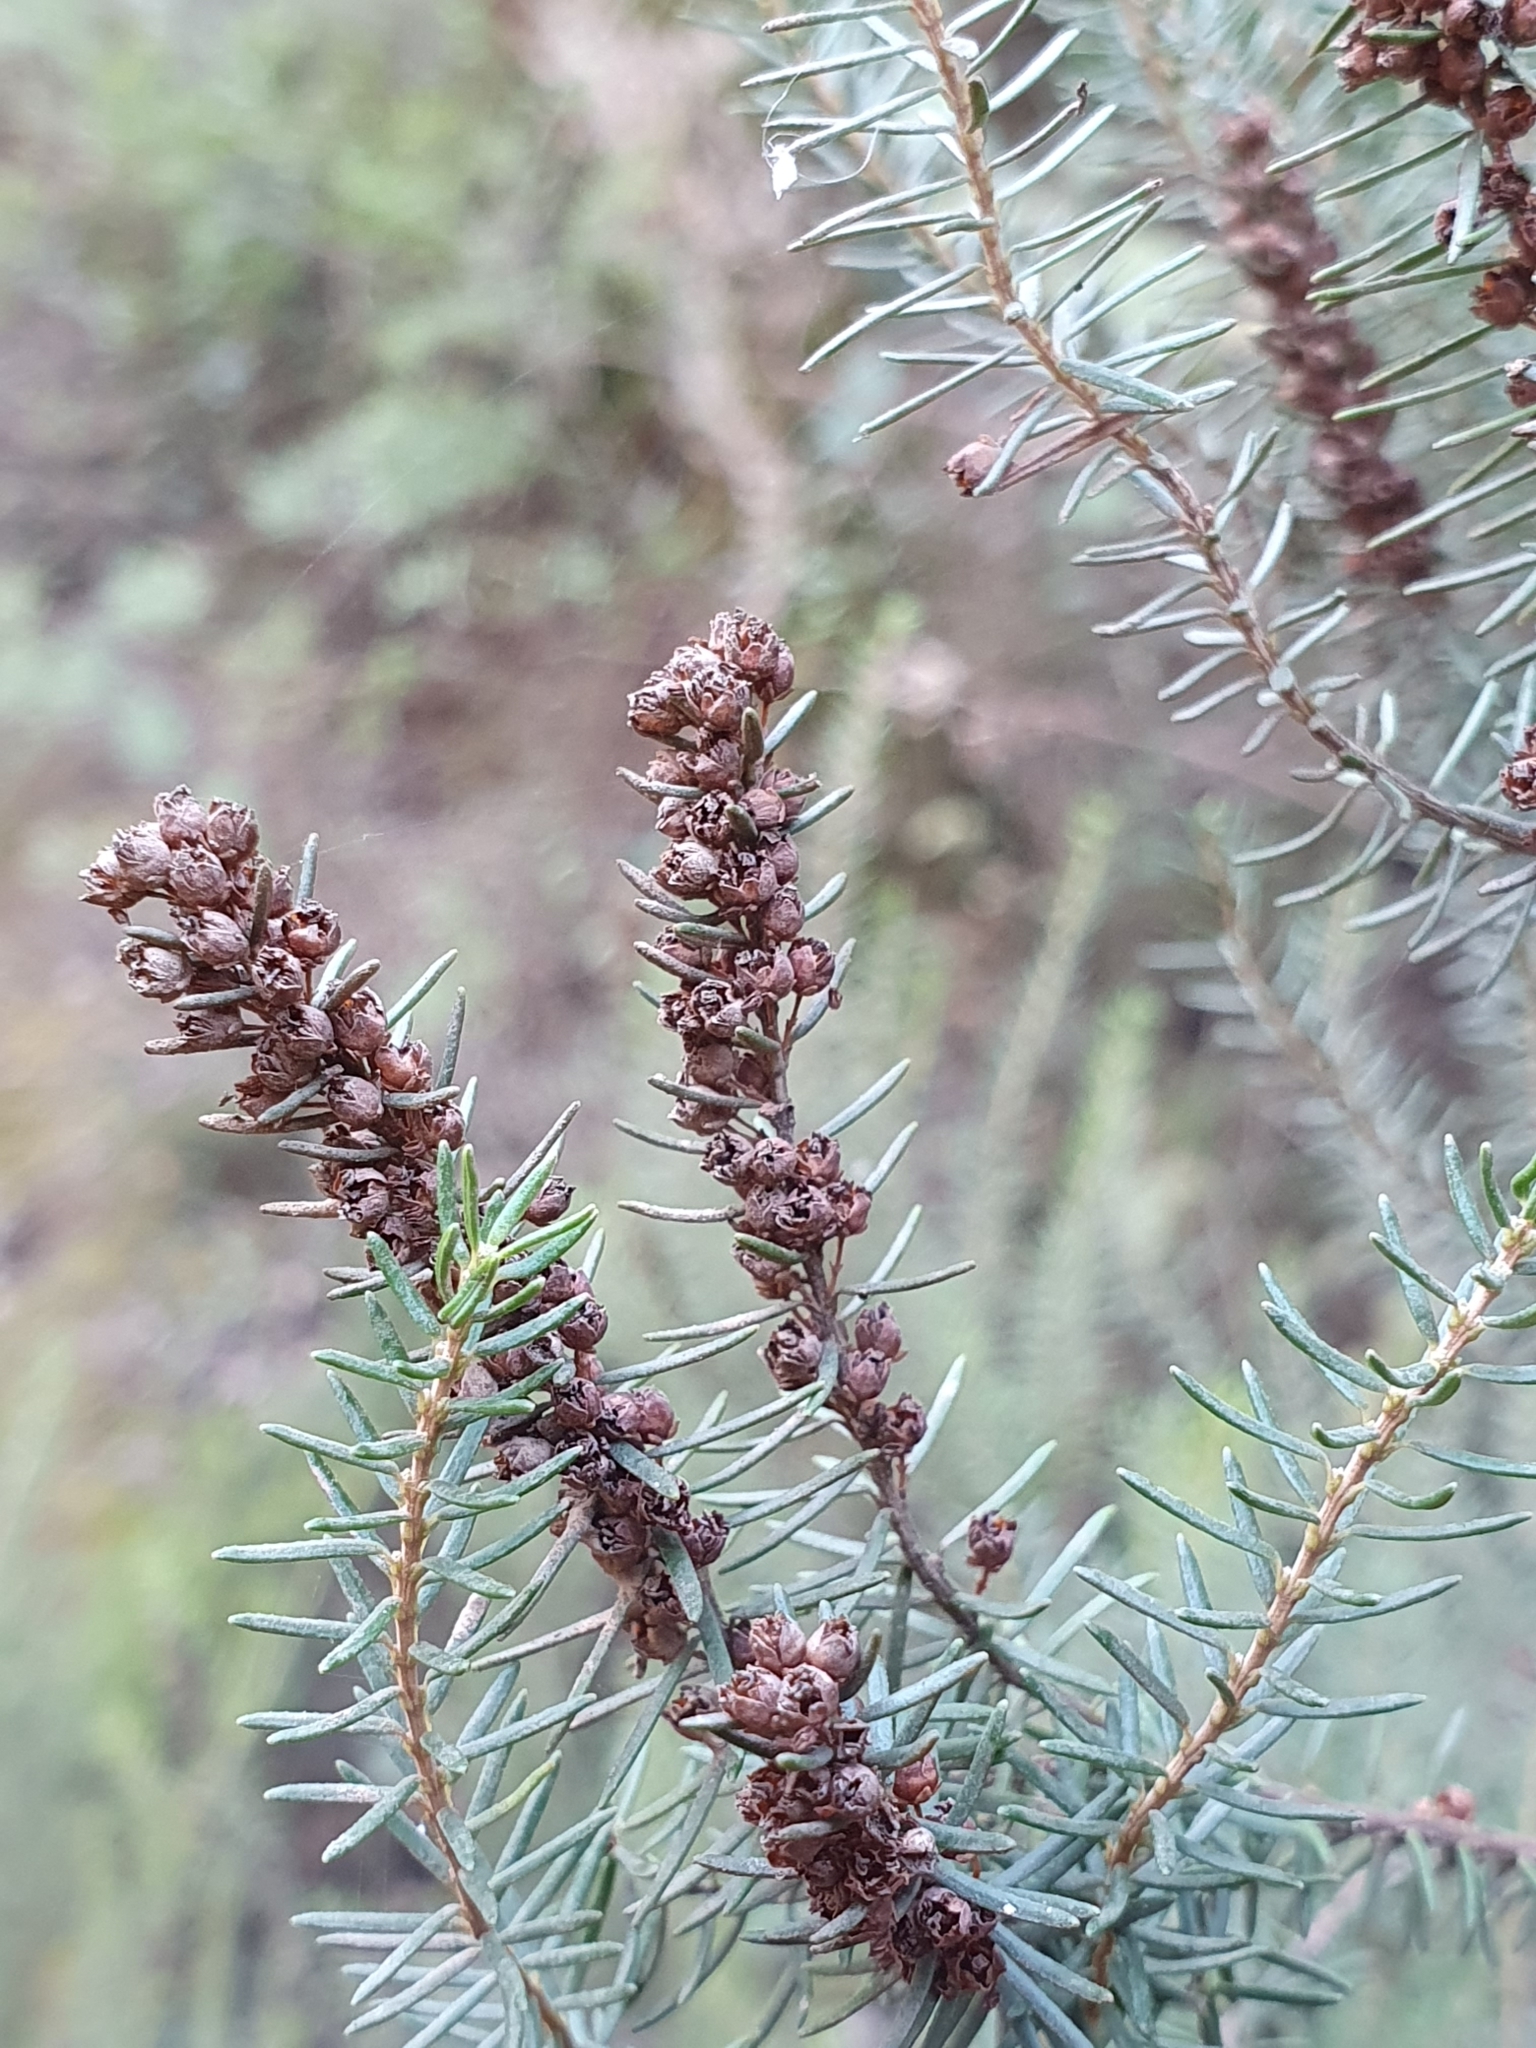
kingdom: Plantae
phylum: Tracheophyta
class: Magnoliopsida
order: Ericales
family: Ericaceae
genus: Erica
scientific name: Erica scoparia
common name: Green heather
